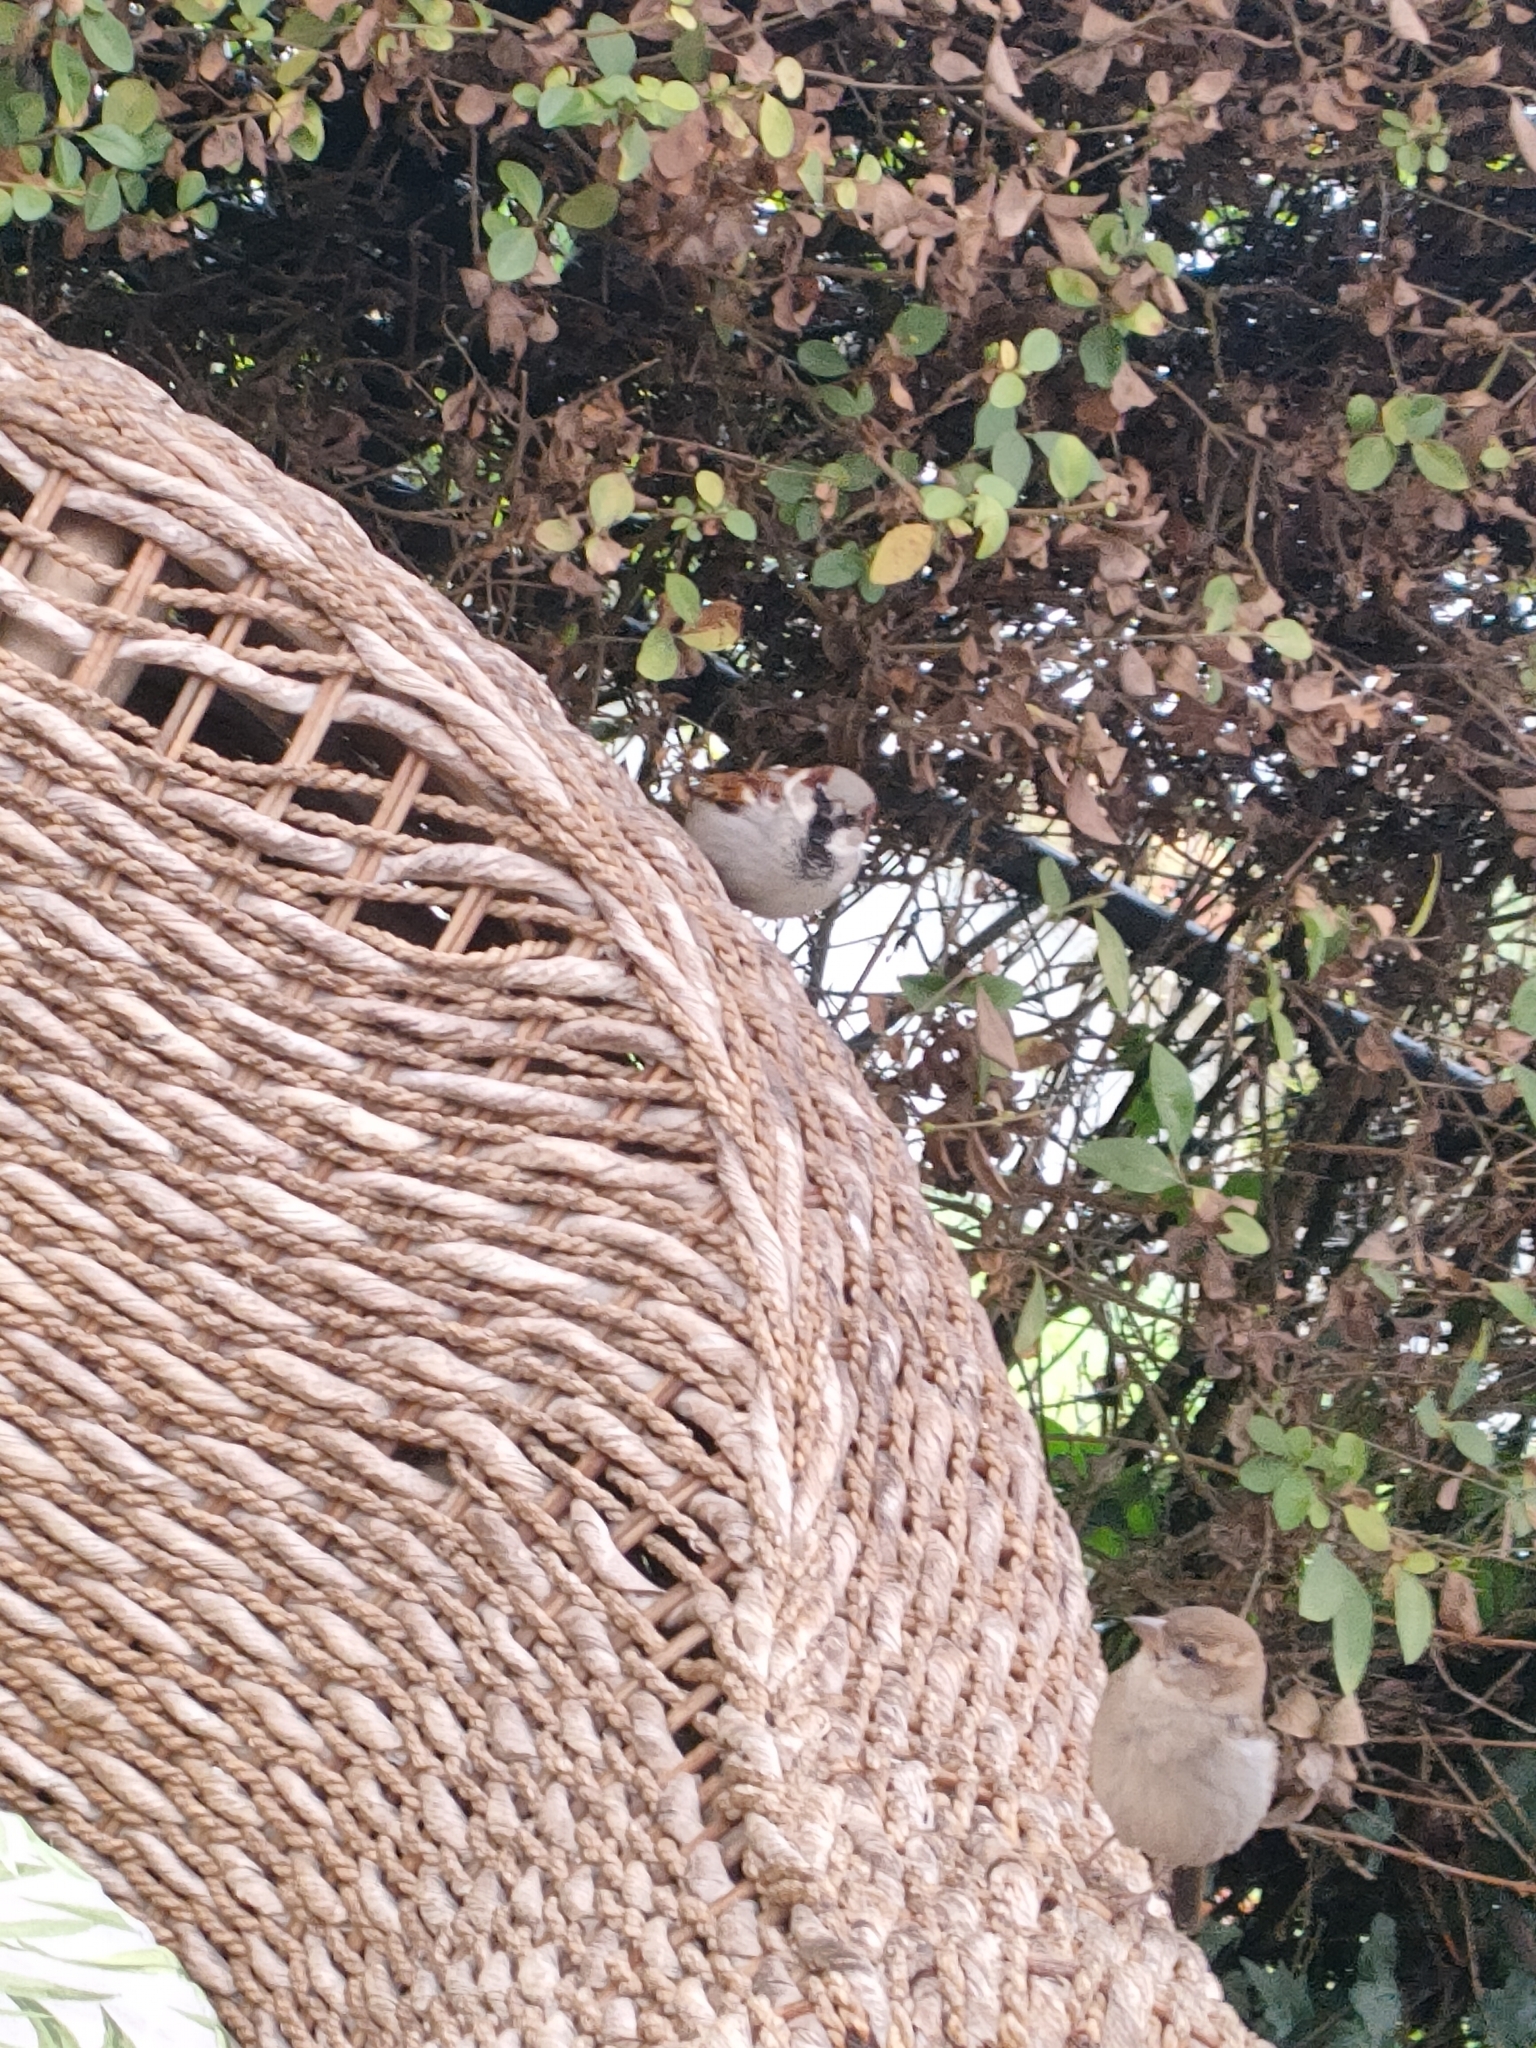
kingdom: Animalia
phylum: Chordata
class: Aves
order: Passeriformes
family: Passeridae
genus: Passer
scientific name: Passer domesticus
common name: House sparrow
